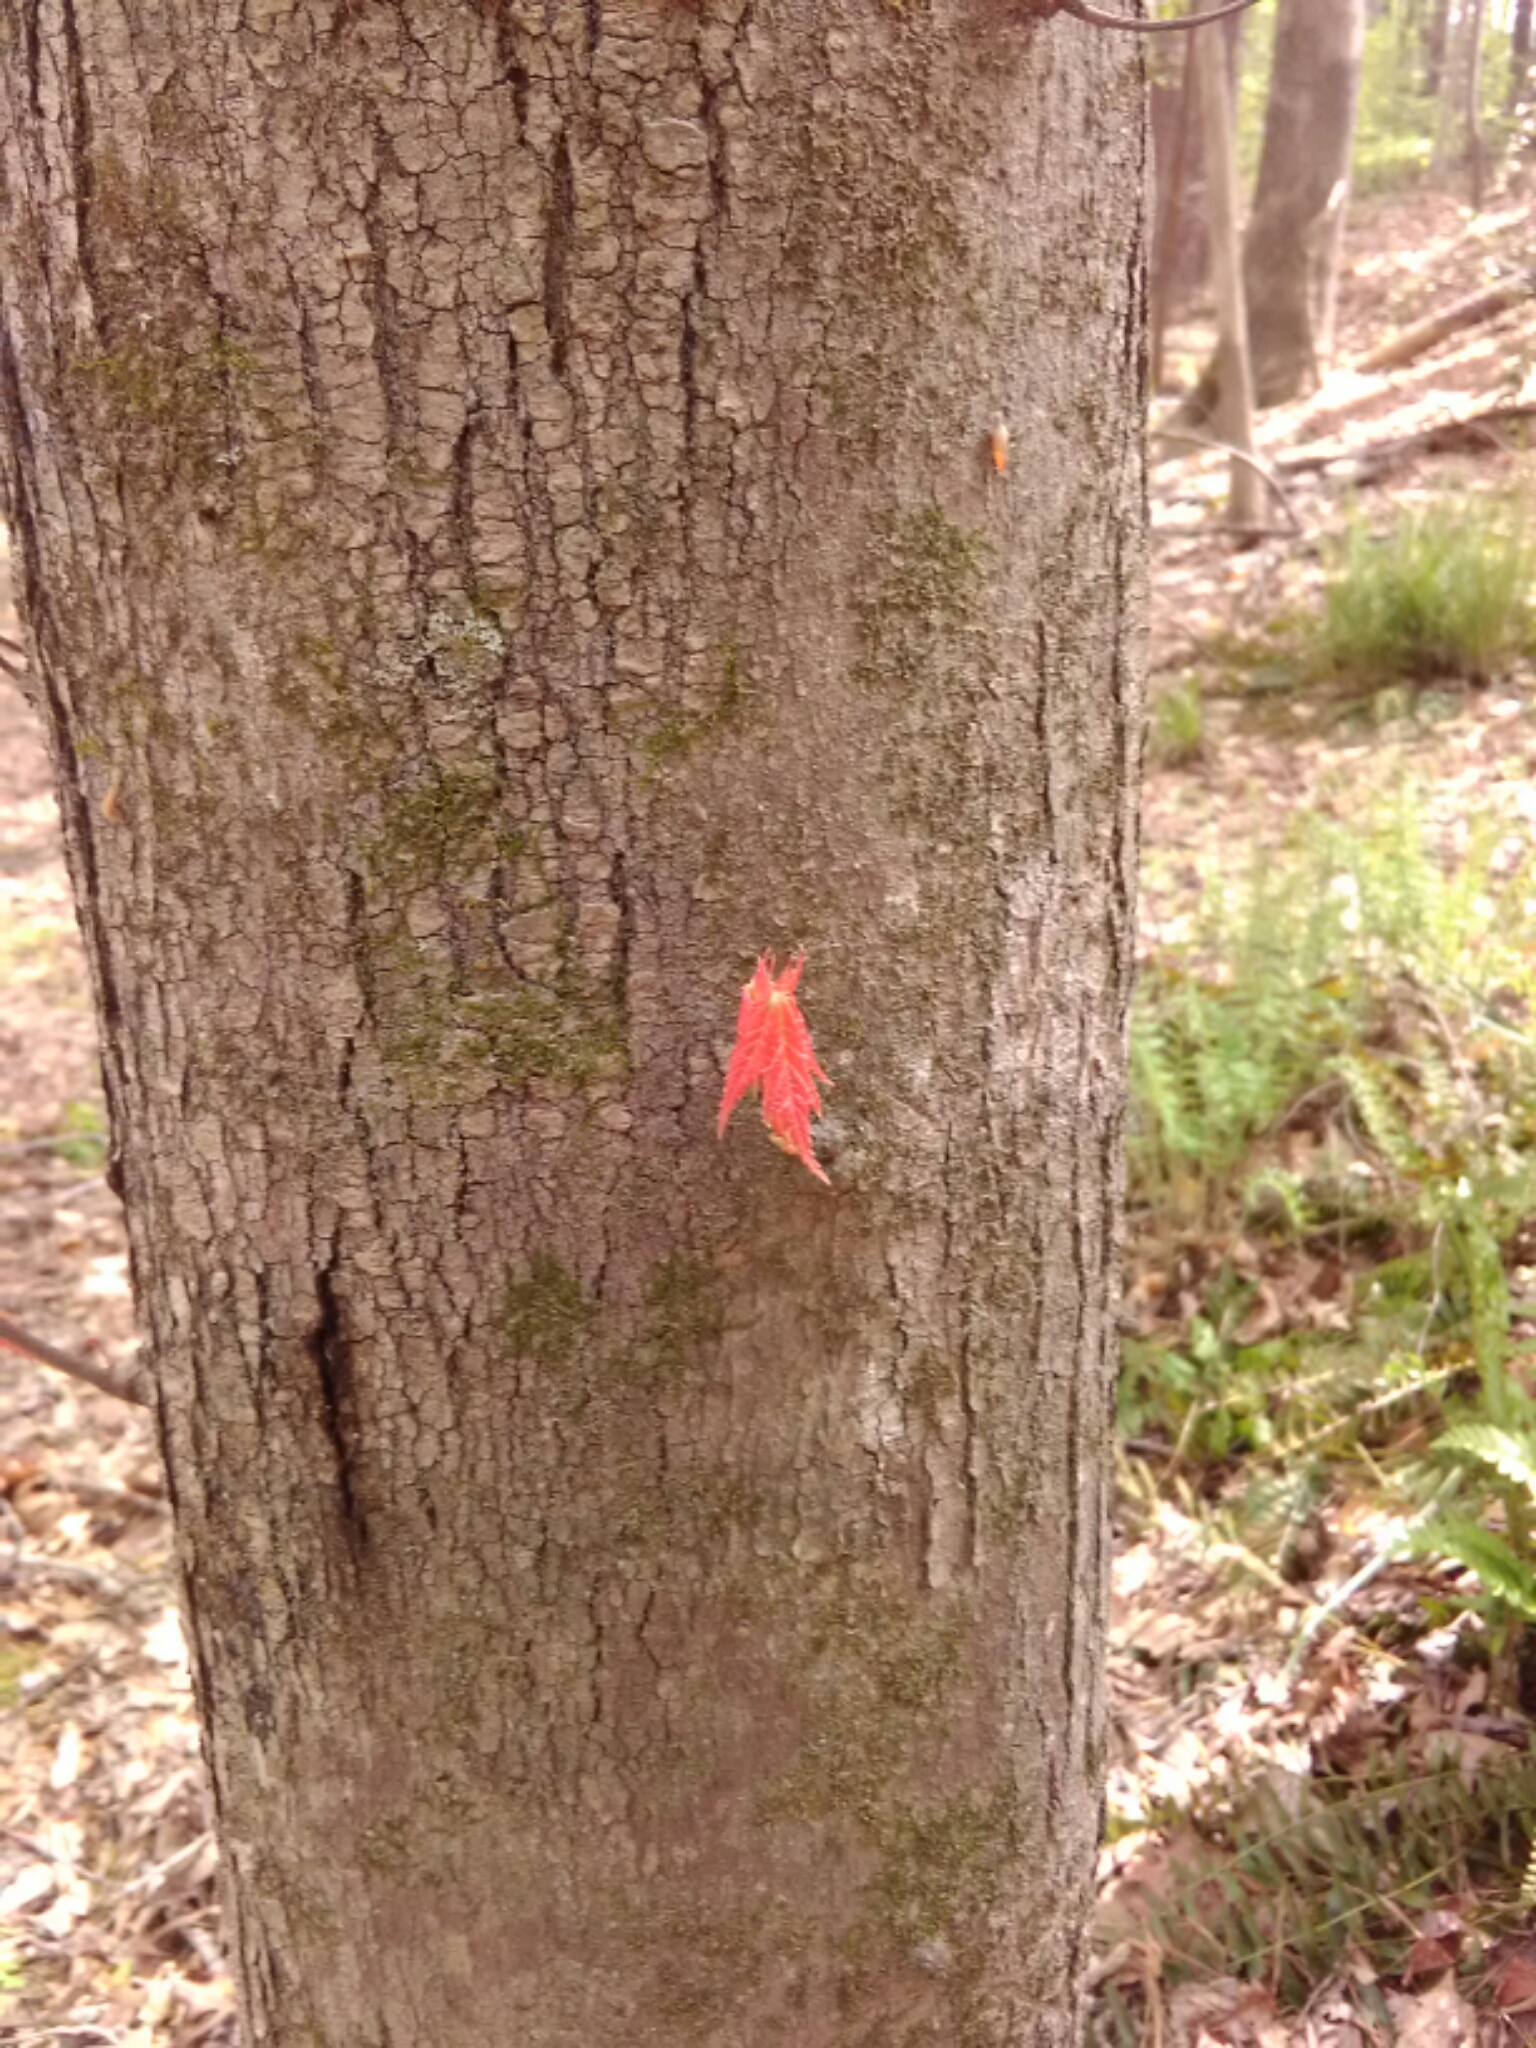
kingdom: Plantae
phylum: Tracheophyta
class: Magnoliopsida
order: Sapindales
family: Sapindaceae
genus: Acer
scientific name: Acer rubrum
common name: Red maple
